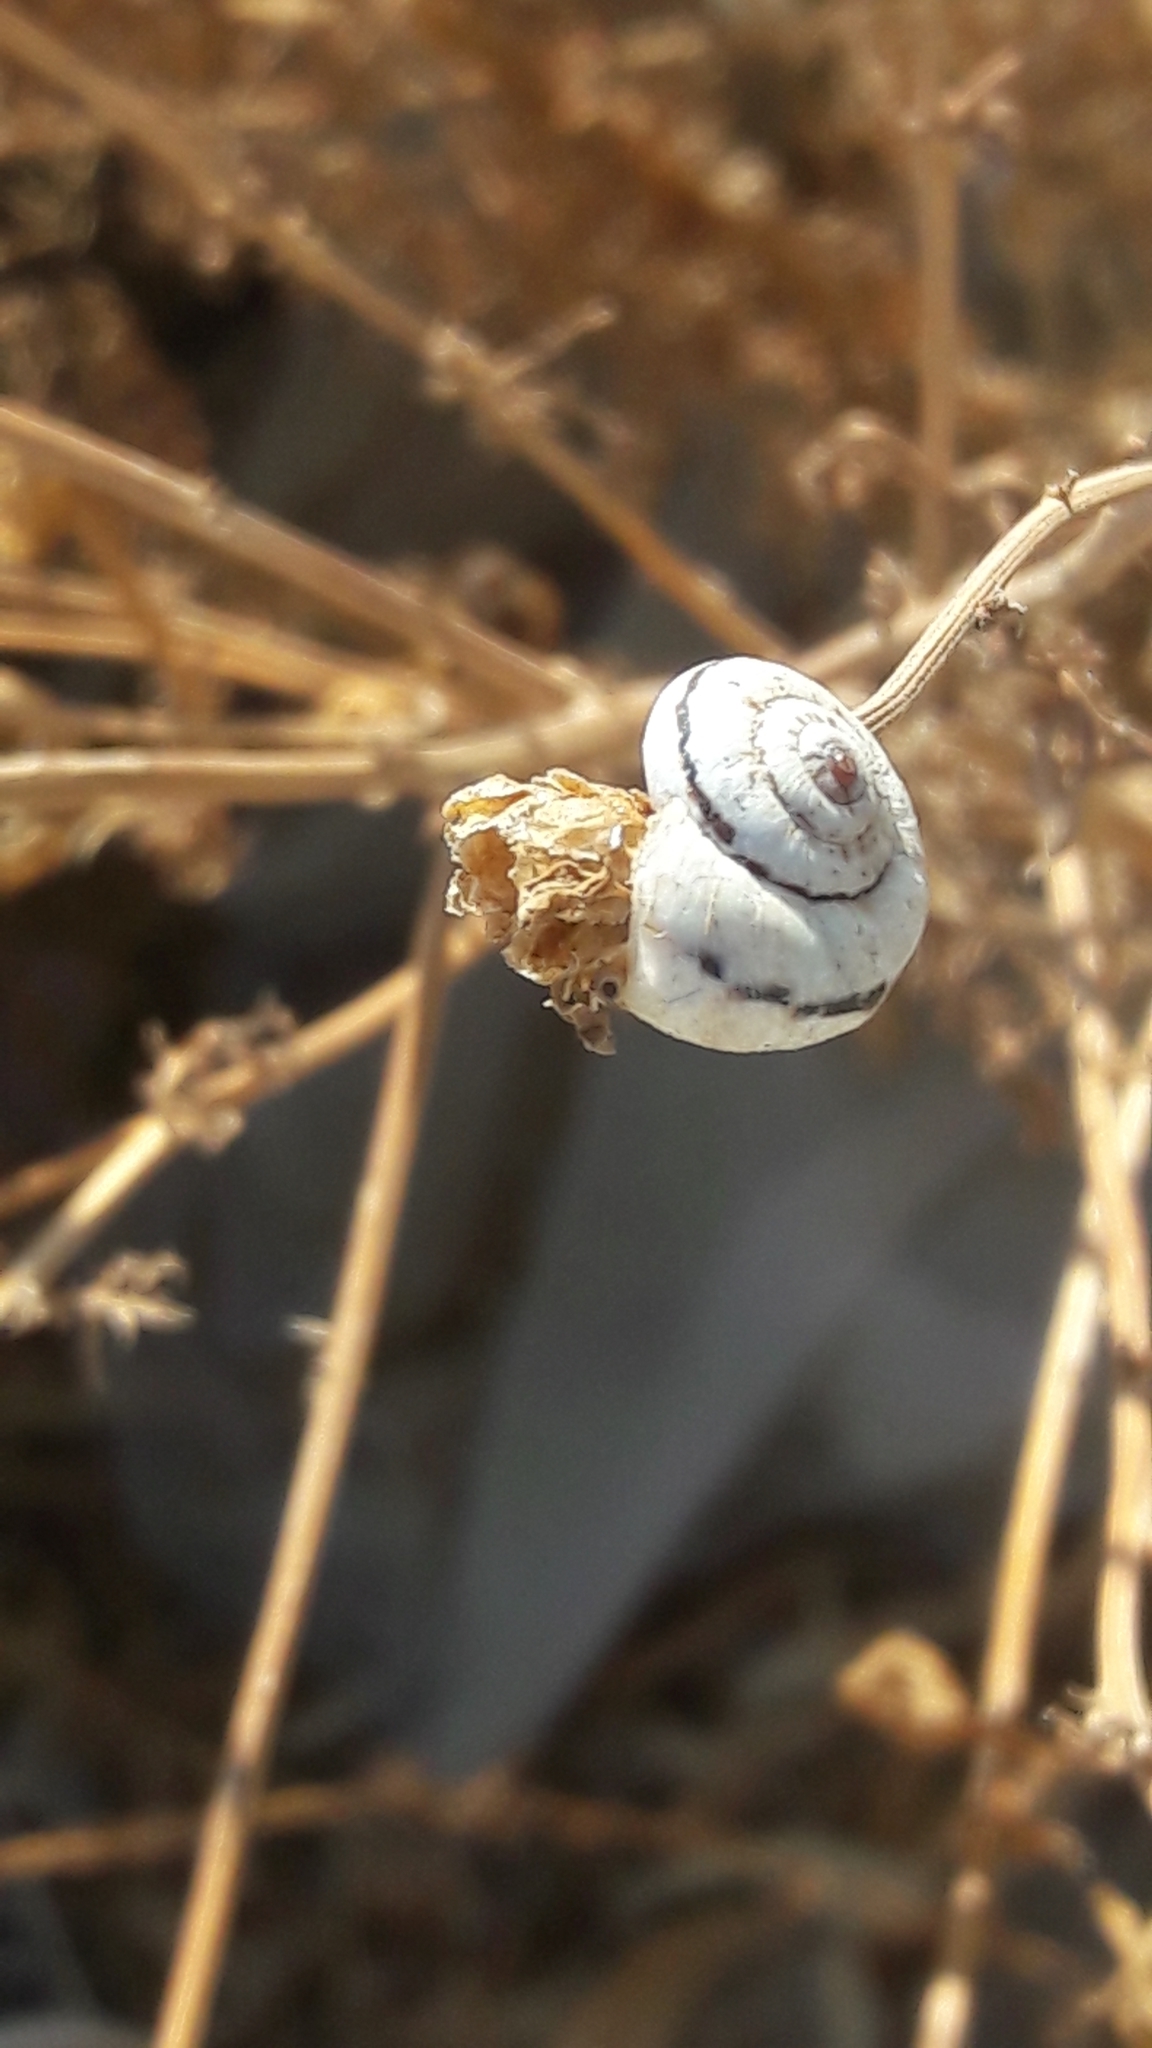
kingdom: Animalia
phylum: Mollusca
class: Gastropoda
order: Stylommatophora
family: Geomitridae
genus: Xeropicta
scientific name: Xeropicta krynickii
